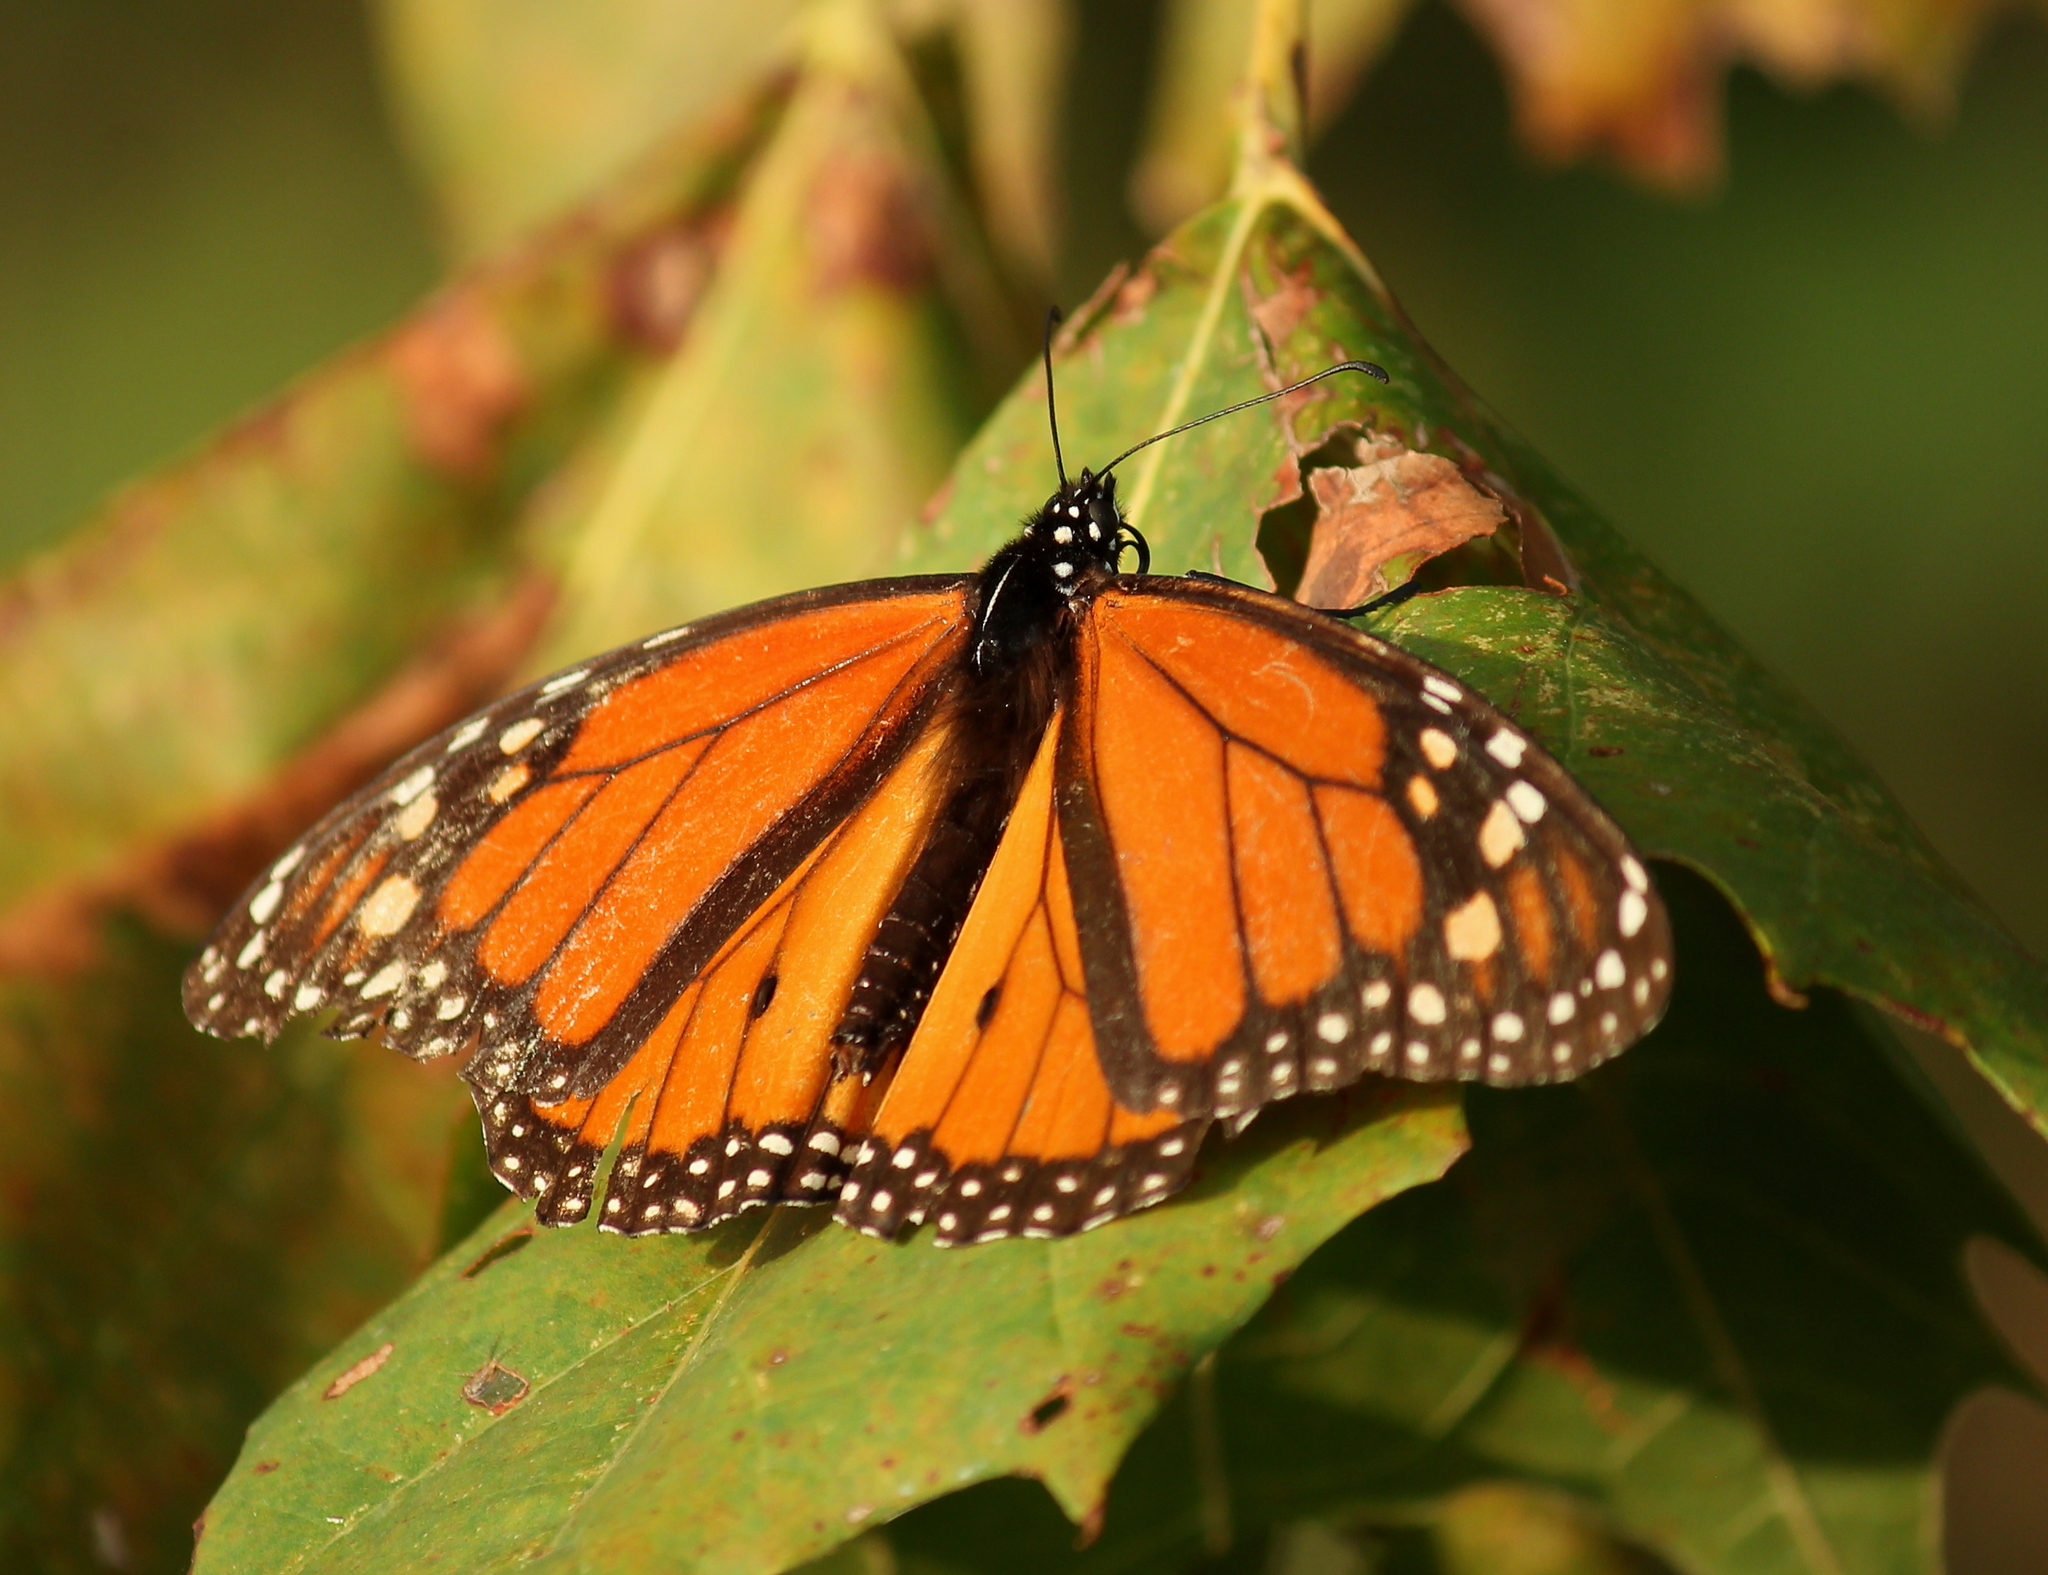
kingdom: Animalia
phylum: Arthropoda
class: Insecta
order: Lepidoptera
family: Nymphalidae
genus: Danaus
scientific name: Danaus plexippus
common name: Monarch
